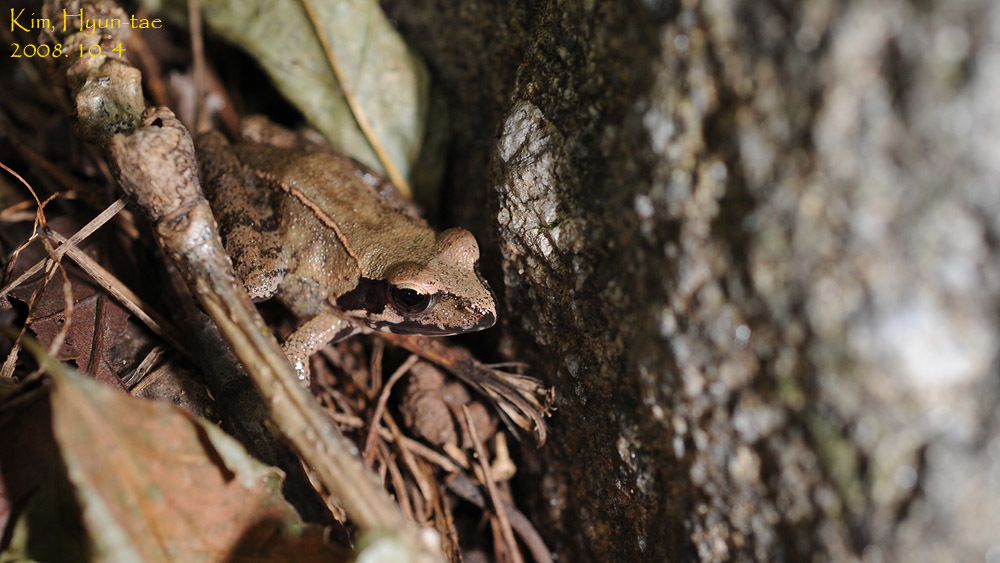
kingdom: Animalia
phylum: Chordata
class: Amphibia
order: Anura
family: Ranidae
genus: Rana
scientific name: Rana uenoi
